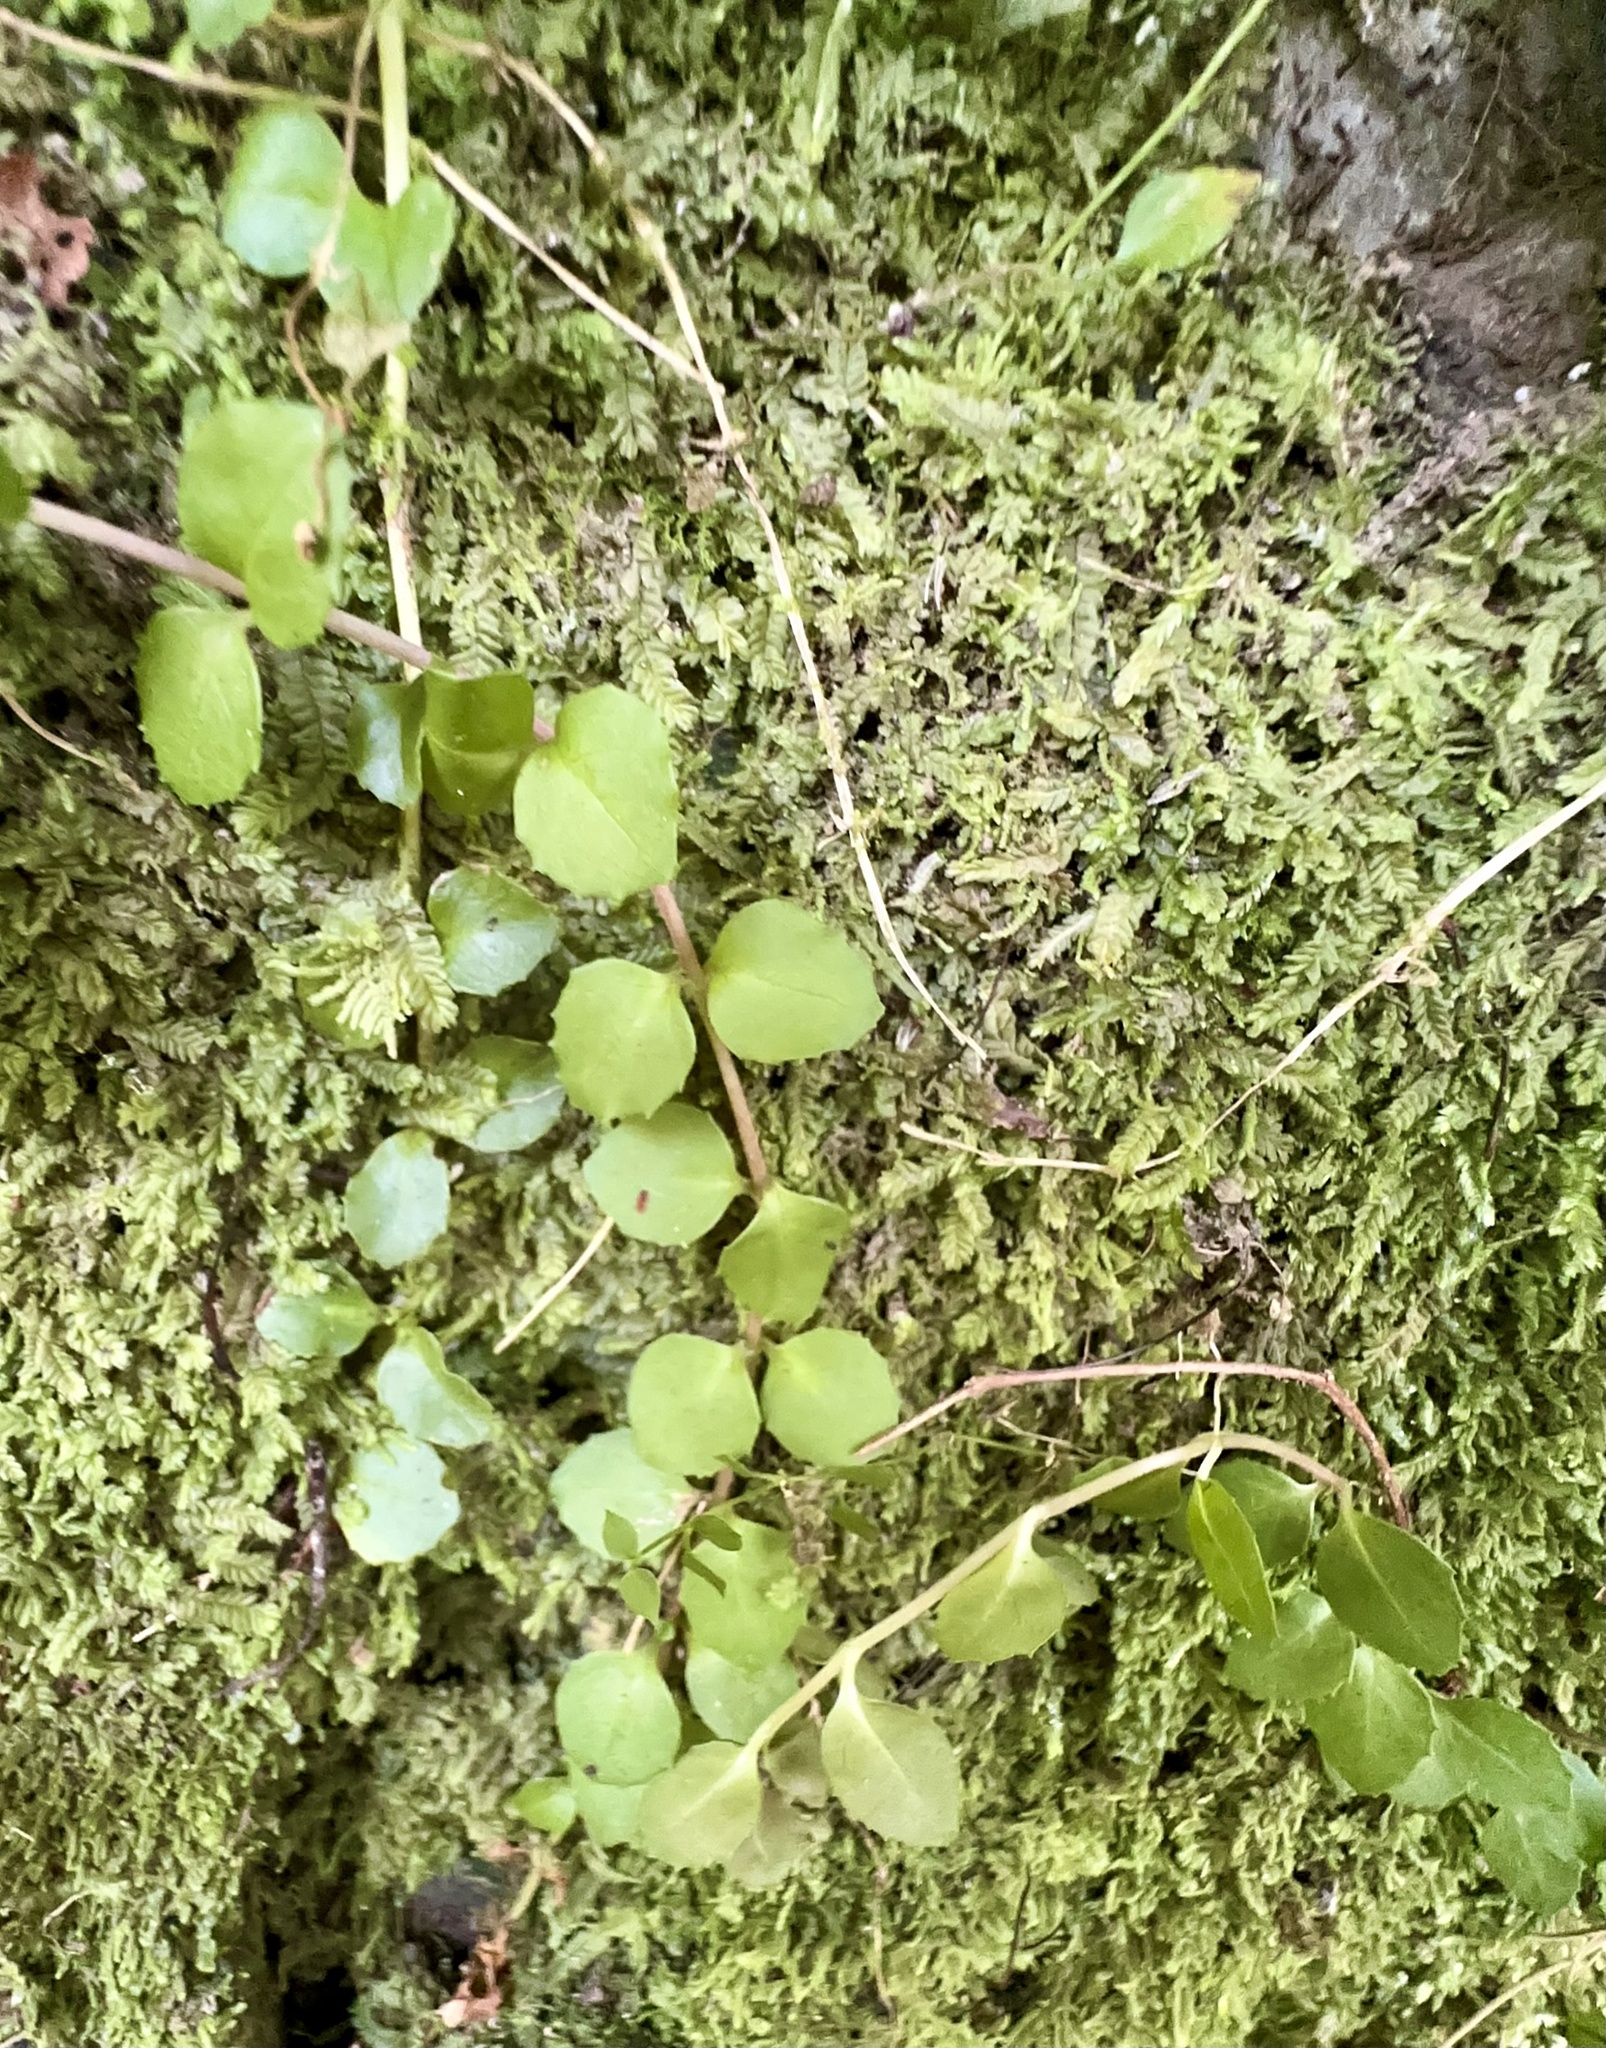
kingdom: Plantae
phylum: Tracheophyta
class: Magnoliopsida
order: Myrtales
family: Onagraceae
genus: Epilobium
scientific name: Epilobium rotundifolium
